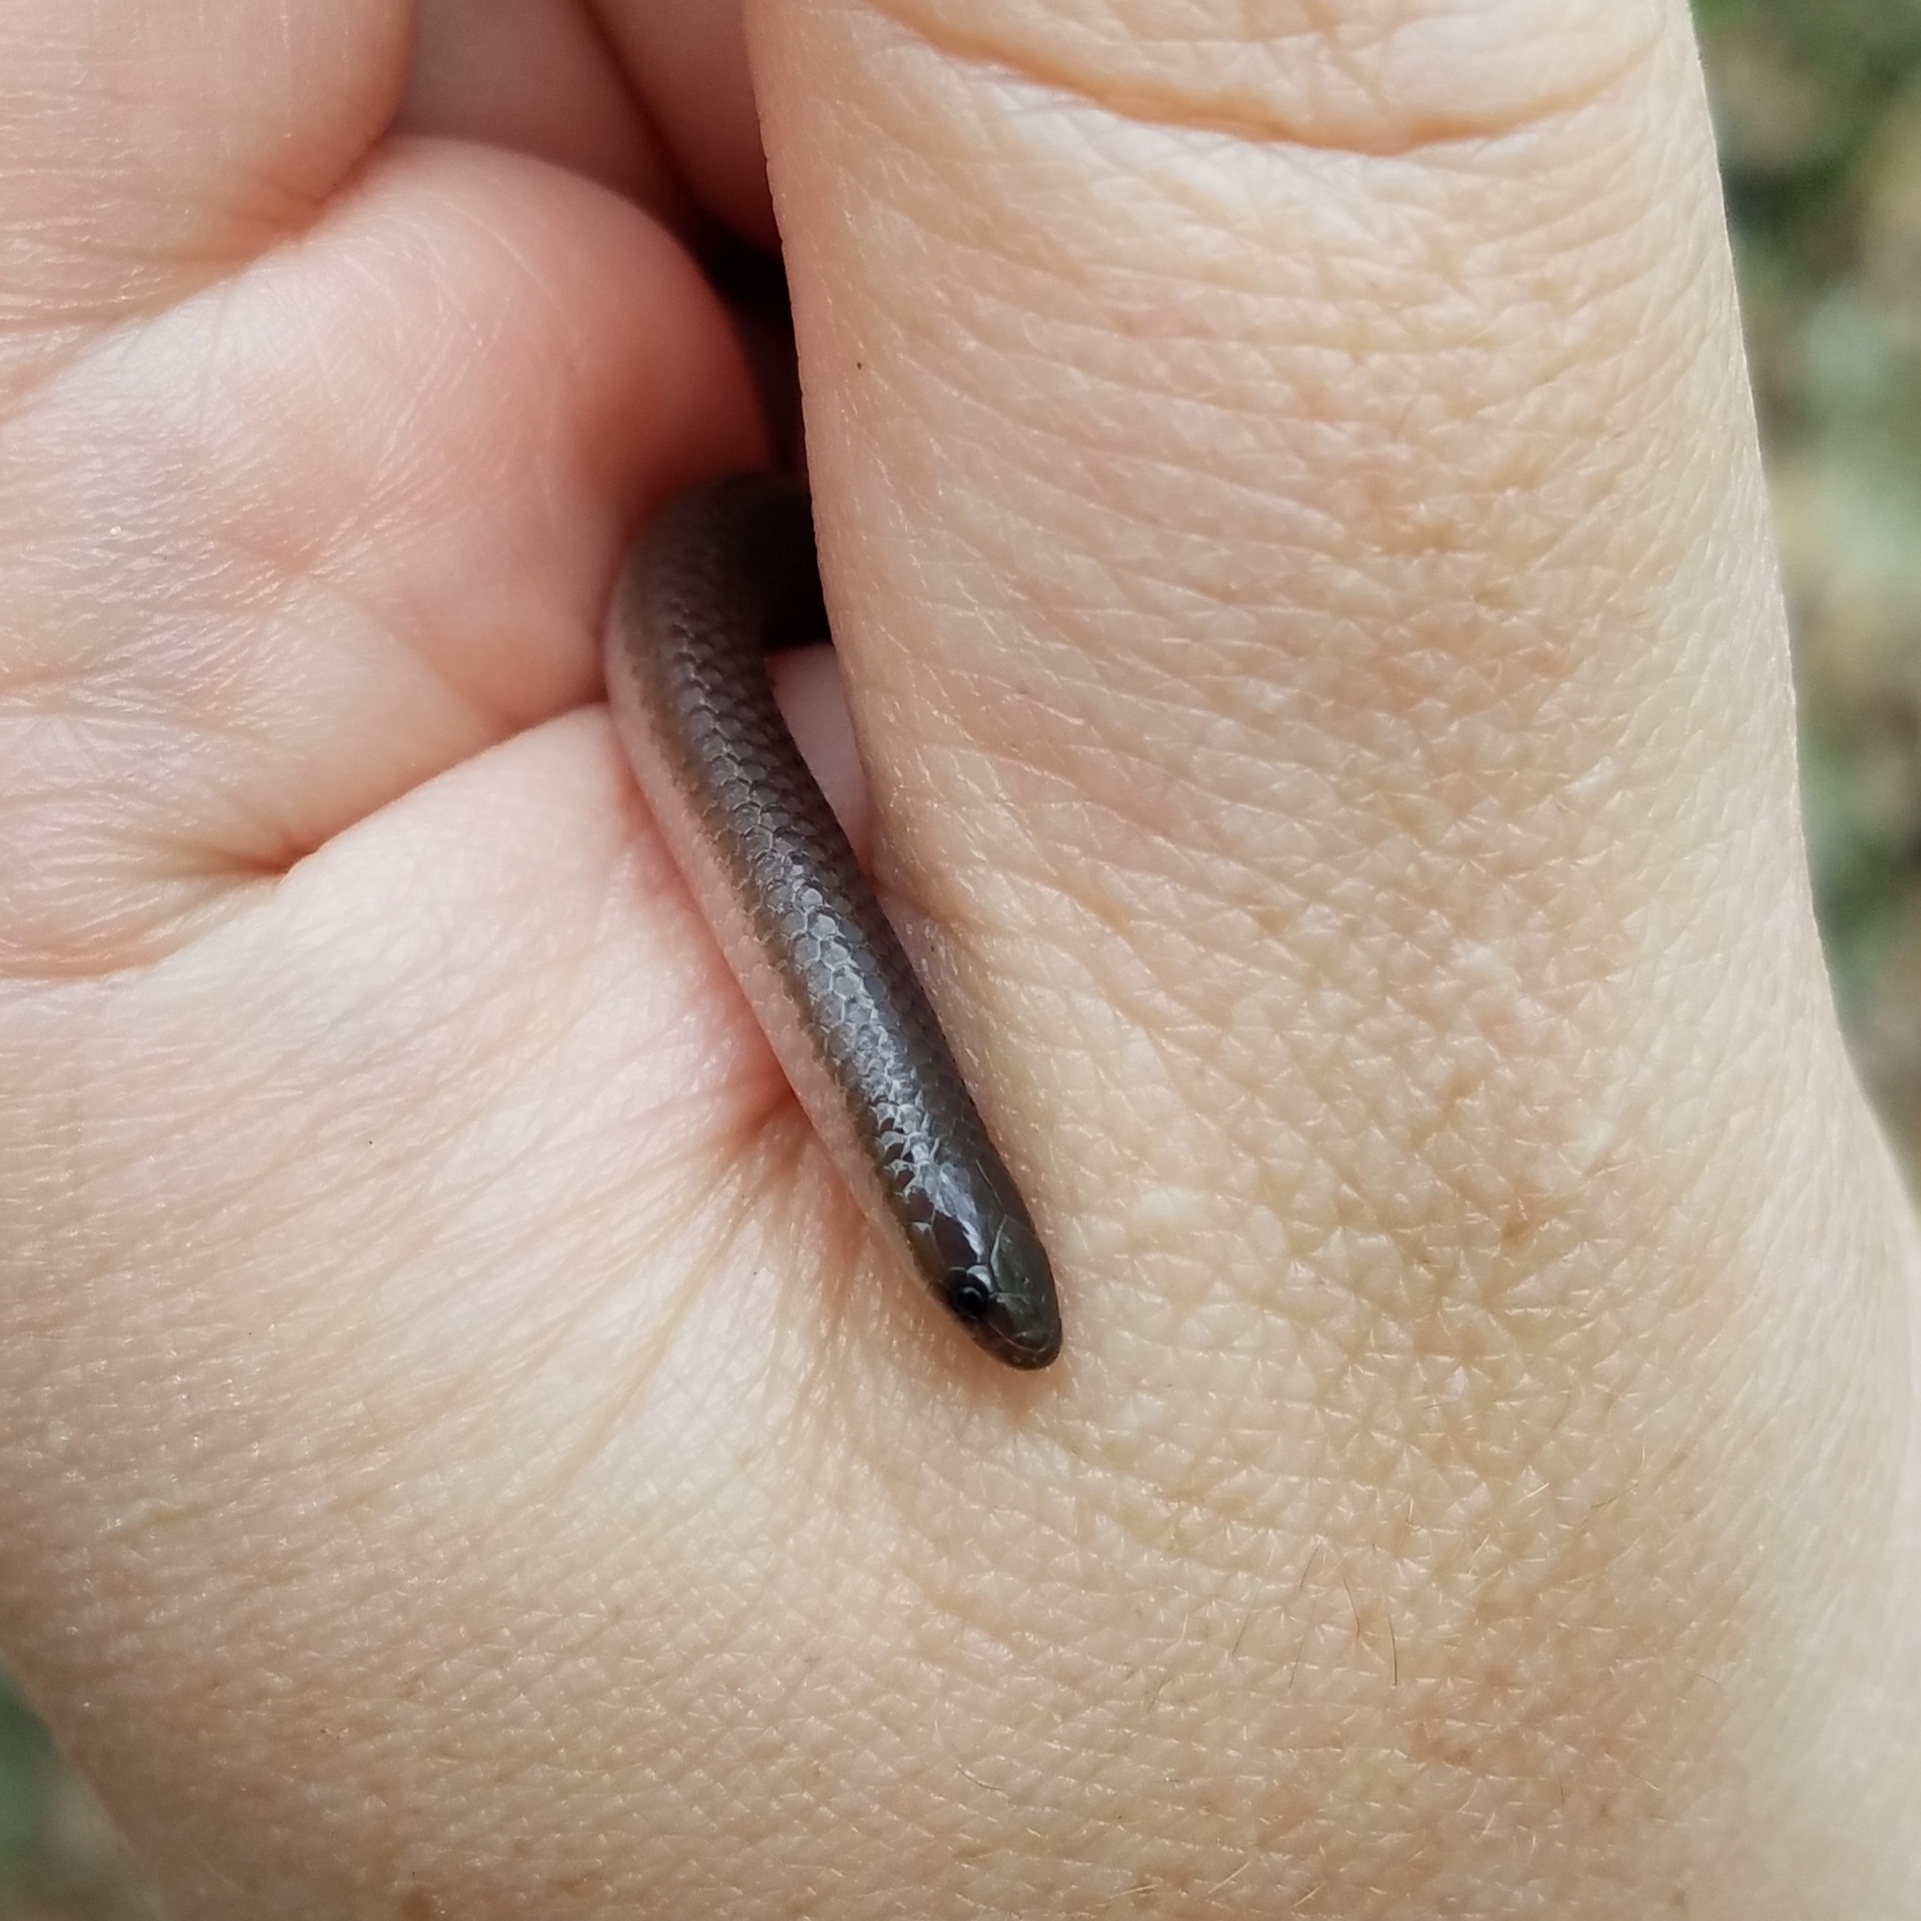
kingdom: Animalia
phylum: Chordata
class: Squamata
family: Colubridae
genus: Carphophis
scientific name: Carphophis amoenus
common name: Eastern worm snake
